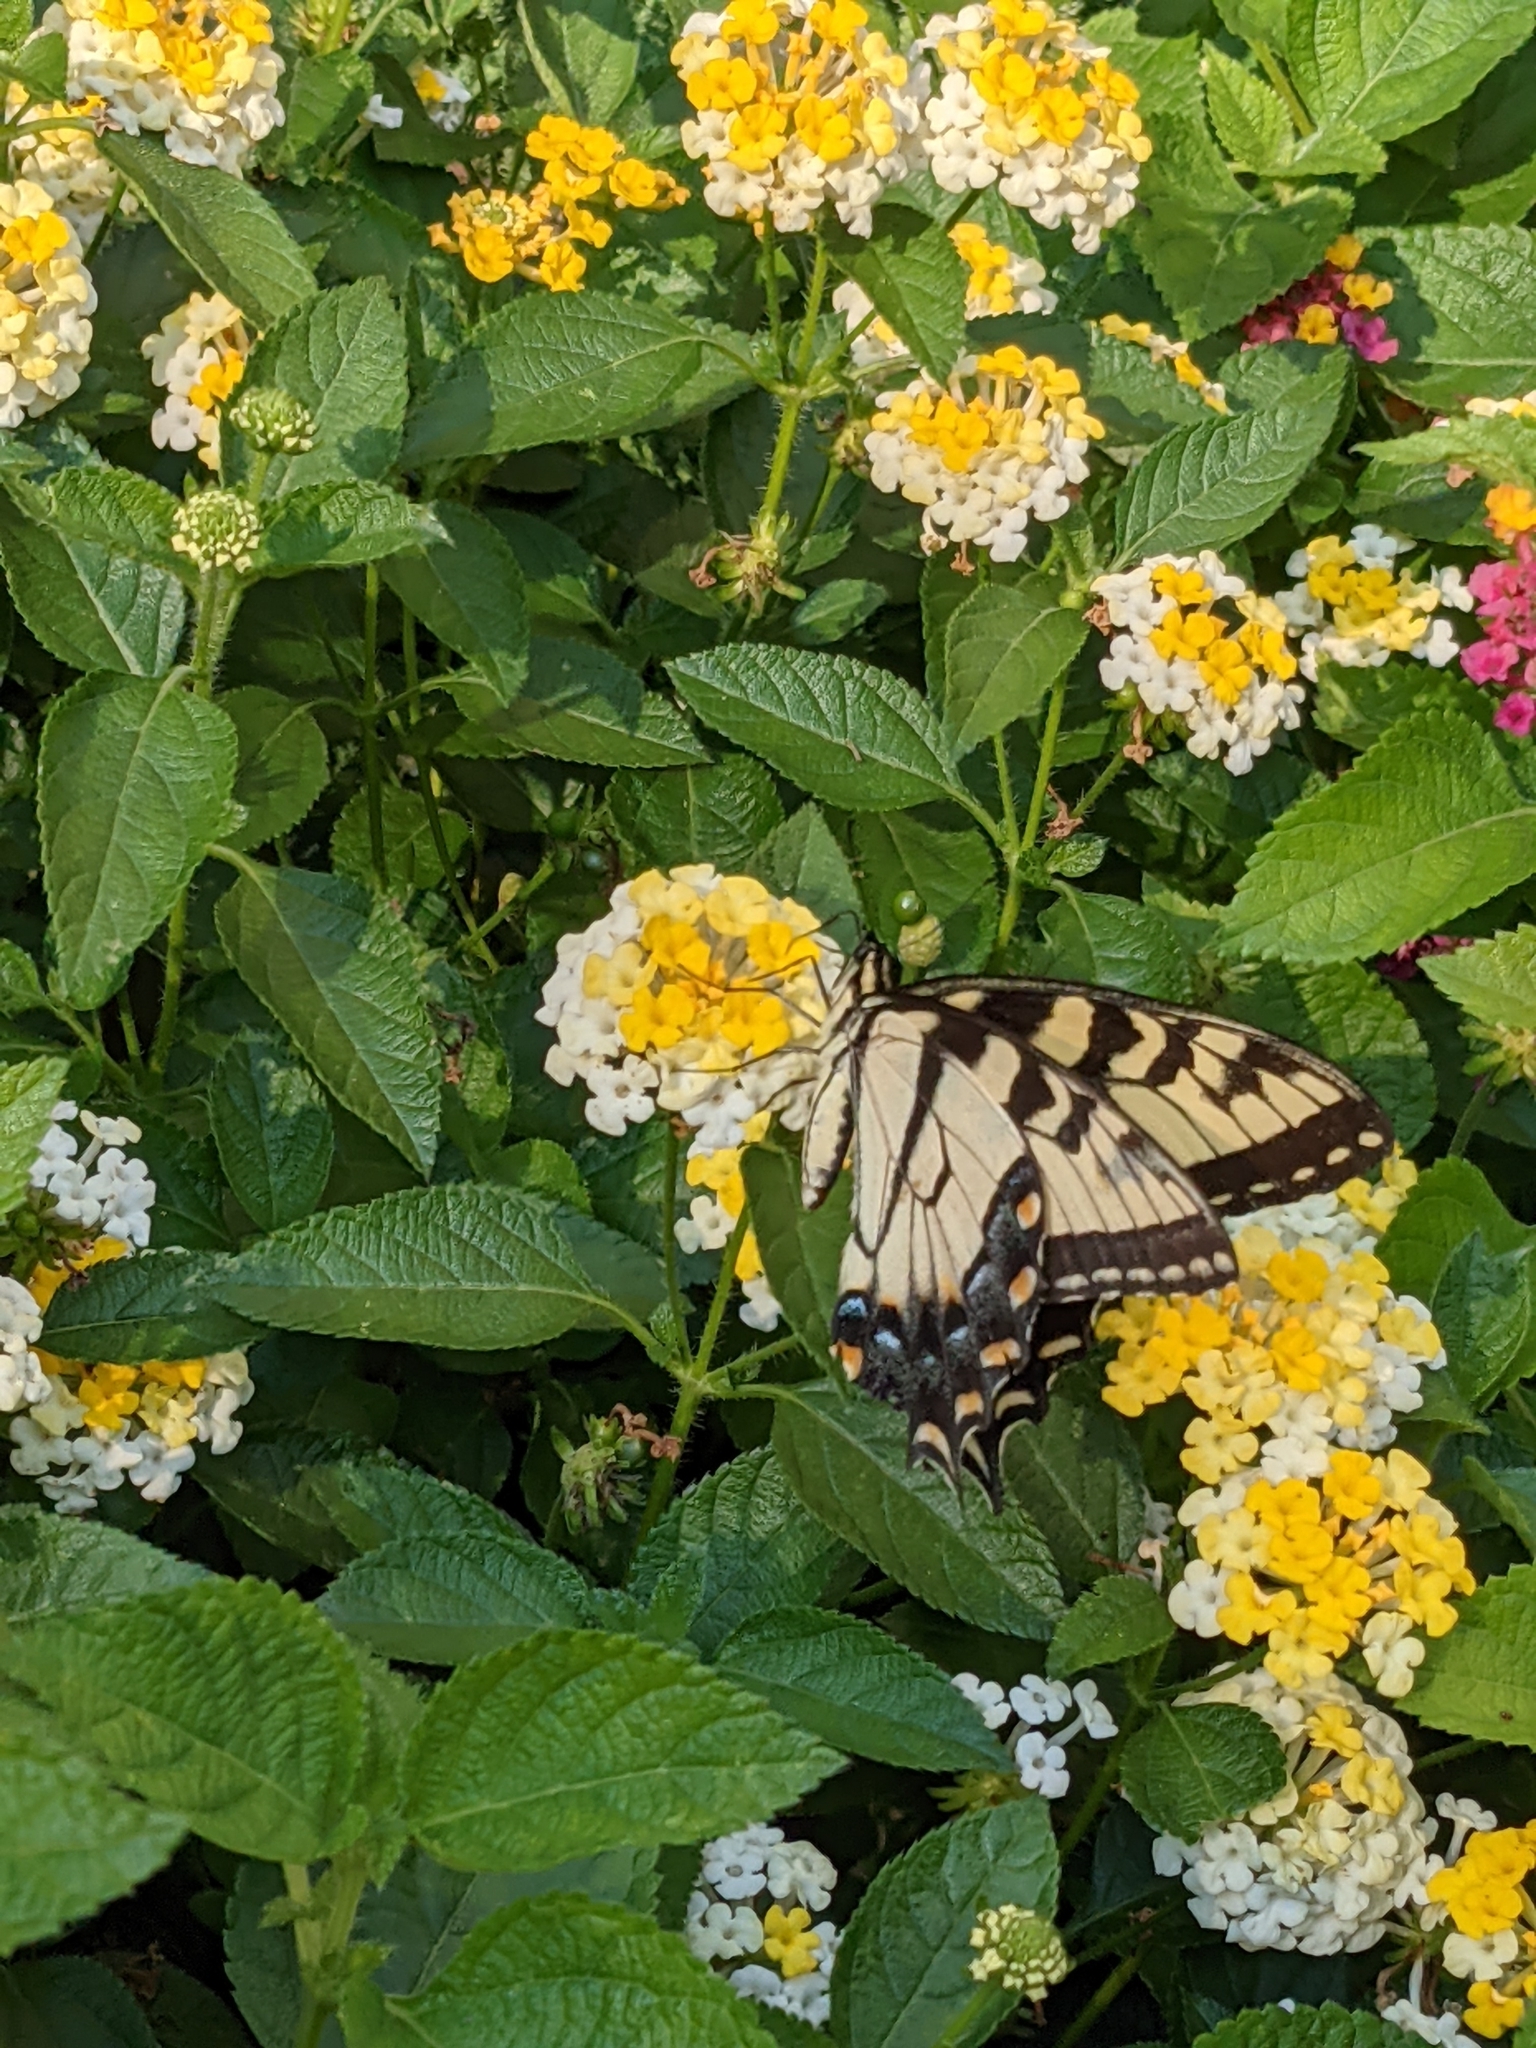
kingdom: Animalia
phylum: Arthropoda
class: Insecta
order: Lepidoptera
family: Papilionidae
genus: Papilio
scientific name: Papilio glaucus
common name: Tiger swallowtail
